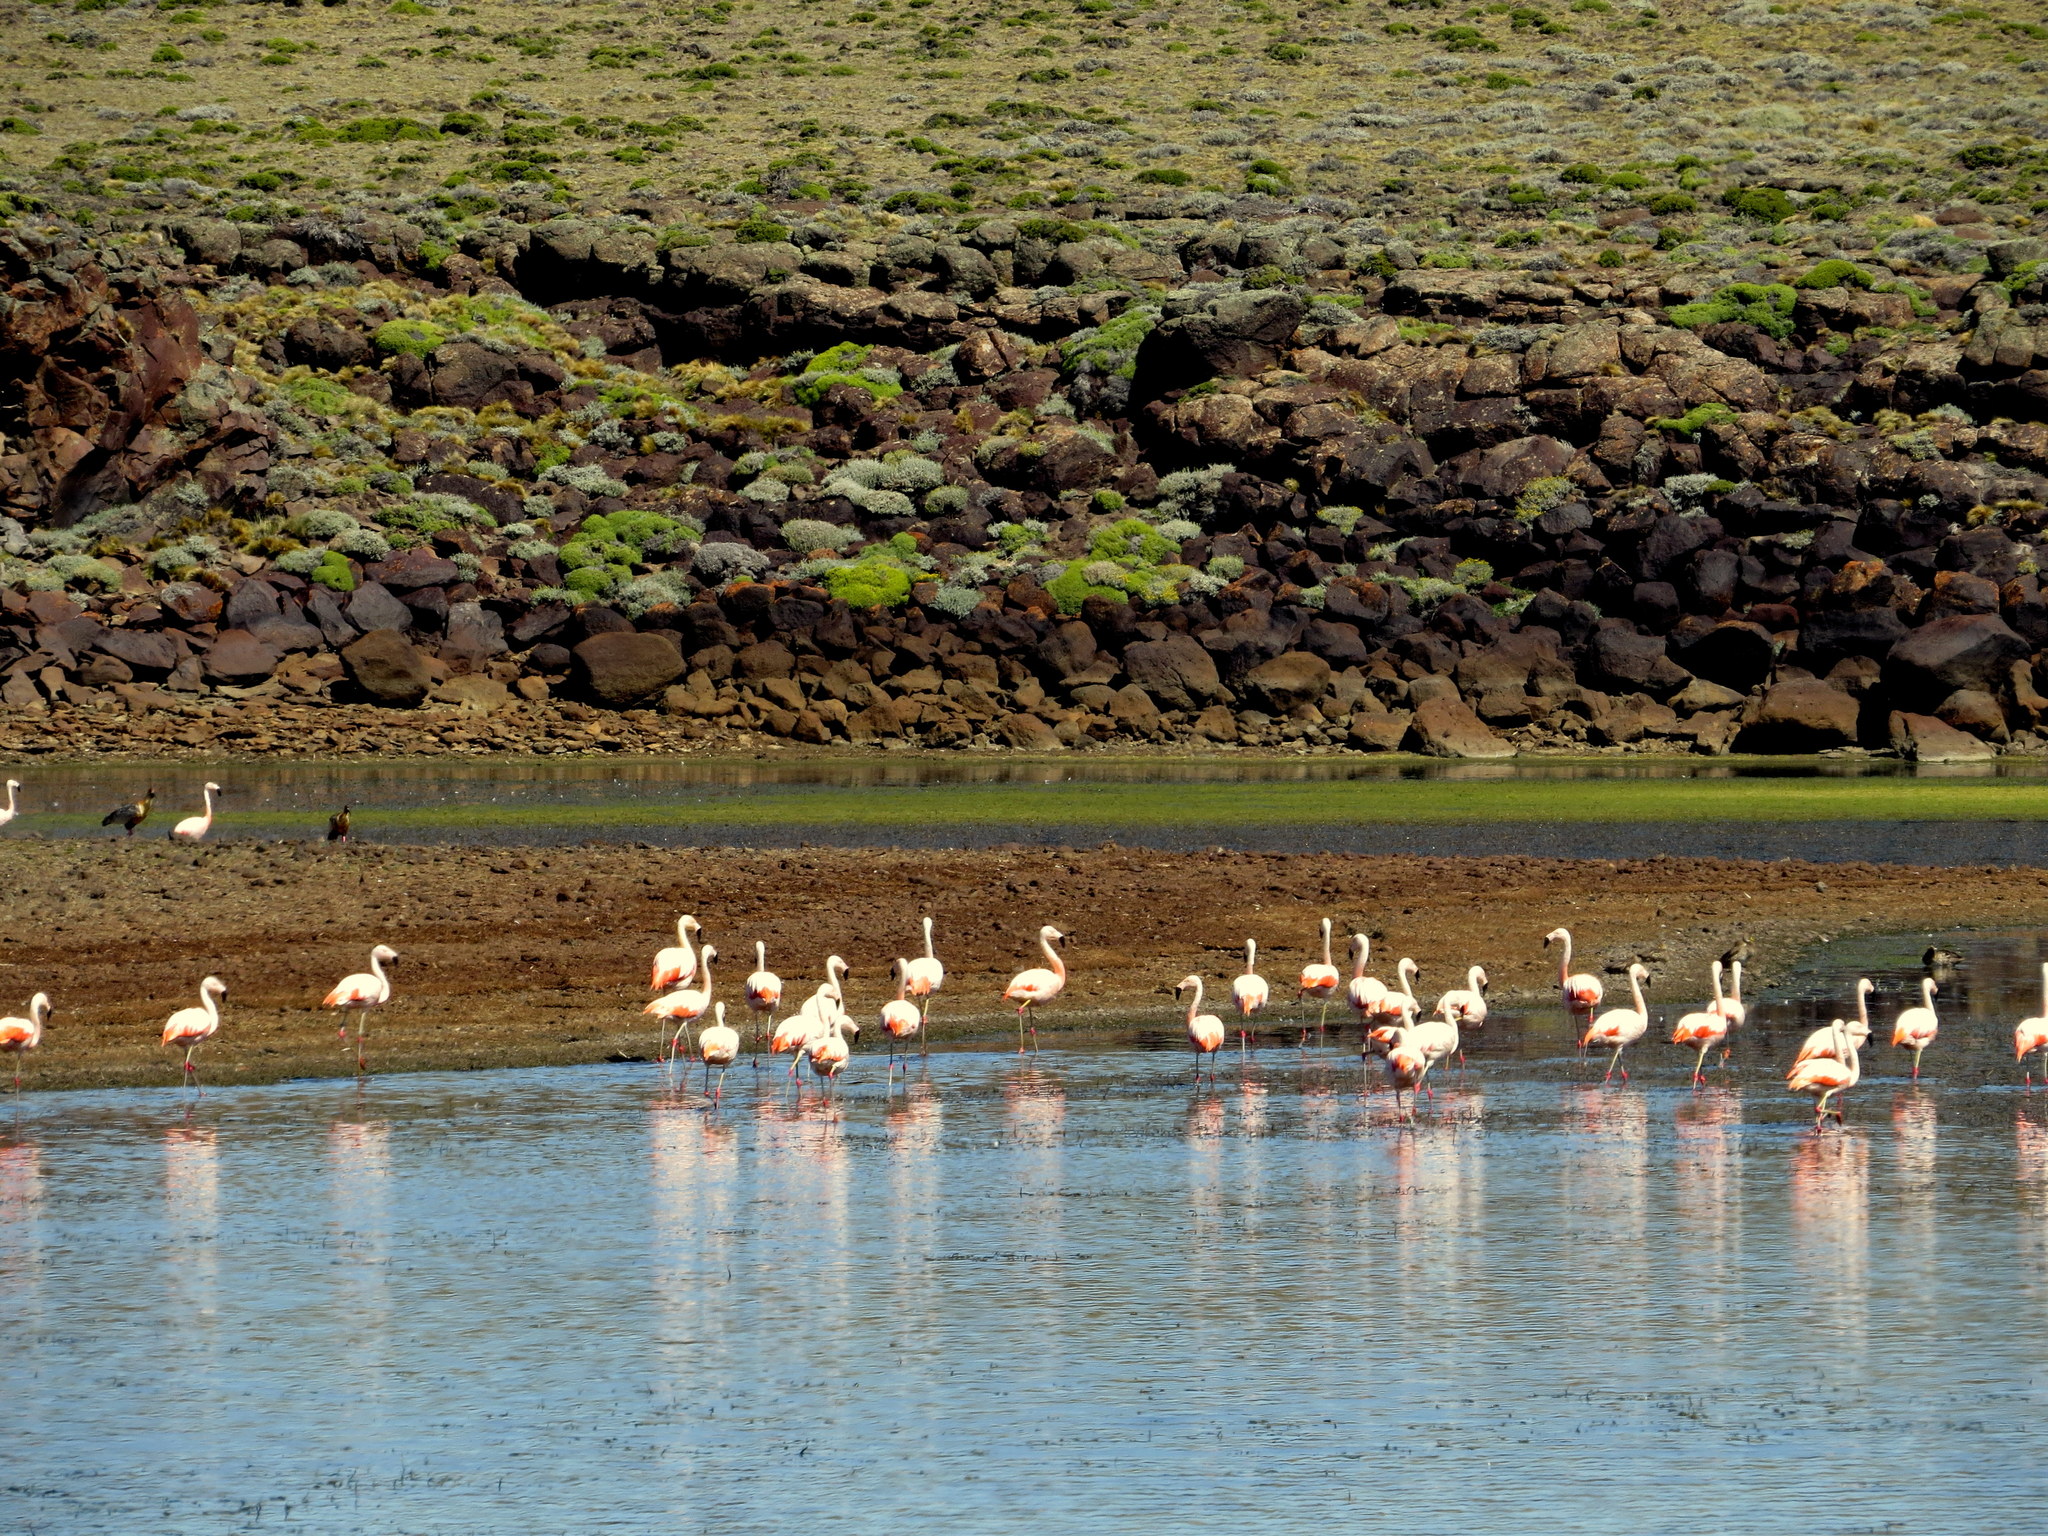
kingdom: Animalia
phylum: Chordata
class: Aves
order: Phoenicopteriformes
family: Phoenicopteridae
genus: Phoenicopterus
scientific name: Phoenicopterus chilensis
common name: Chilean flamingo
